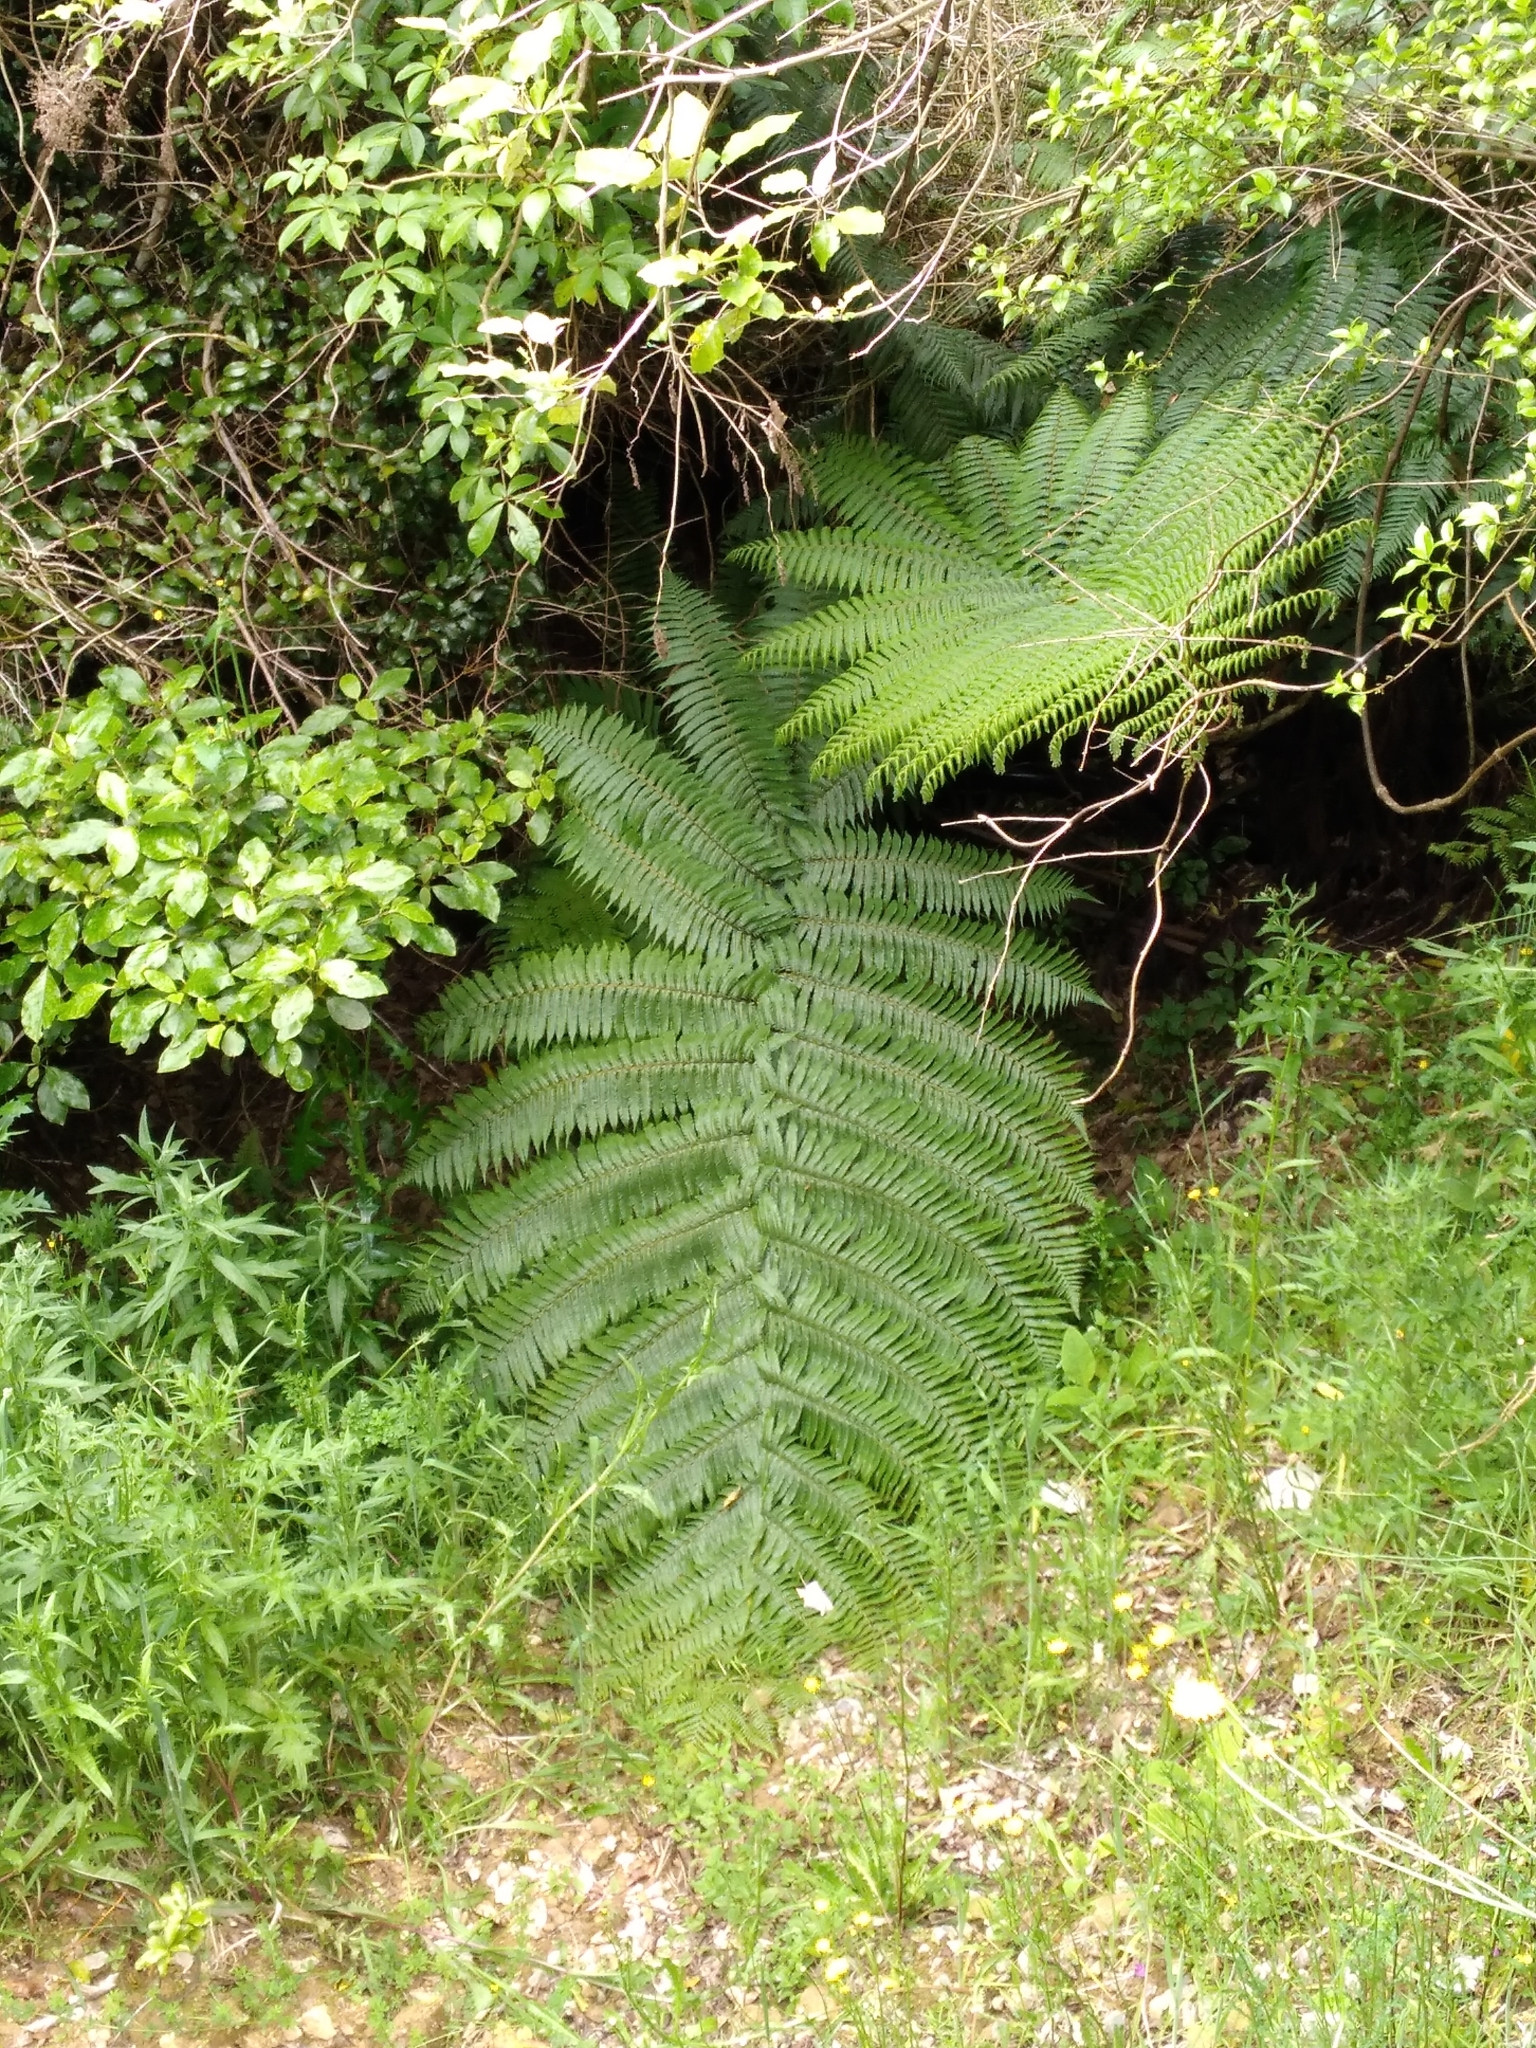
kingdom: Plantae
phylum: Tracheophyta
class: Polypodiopsida
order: Cyatheales
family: Cyatheaceae
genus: Sphaeropteris
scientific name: Sphaeropteris medullaris
